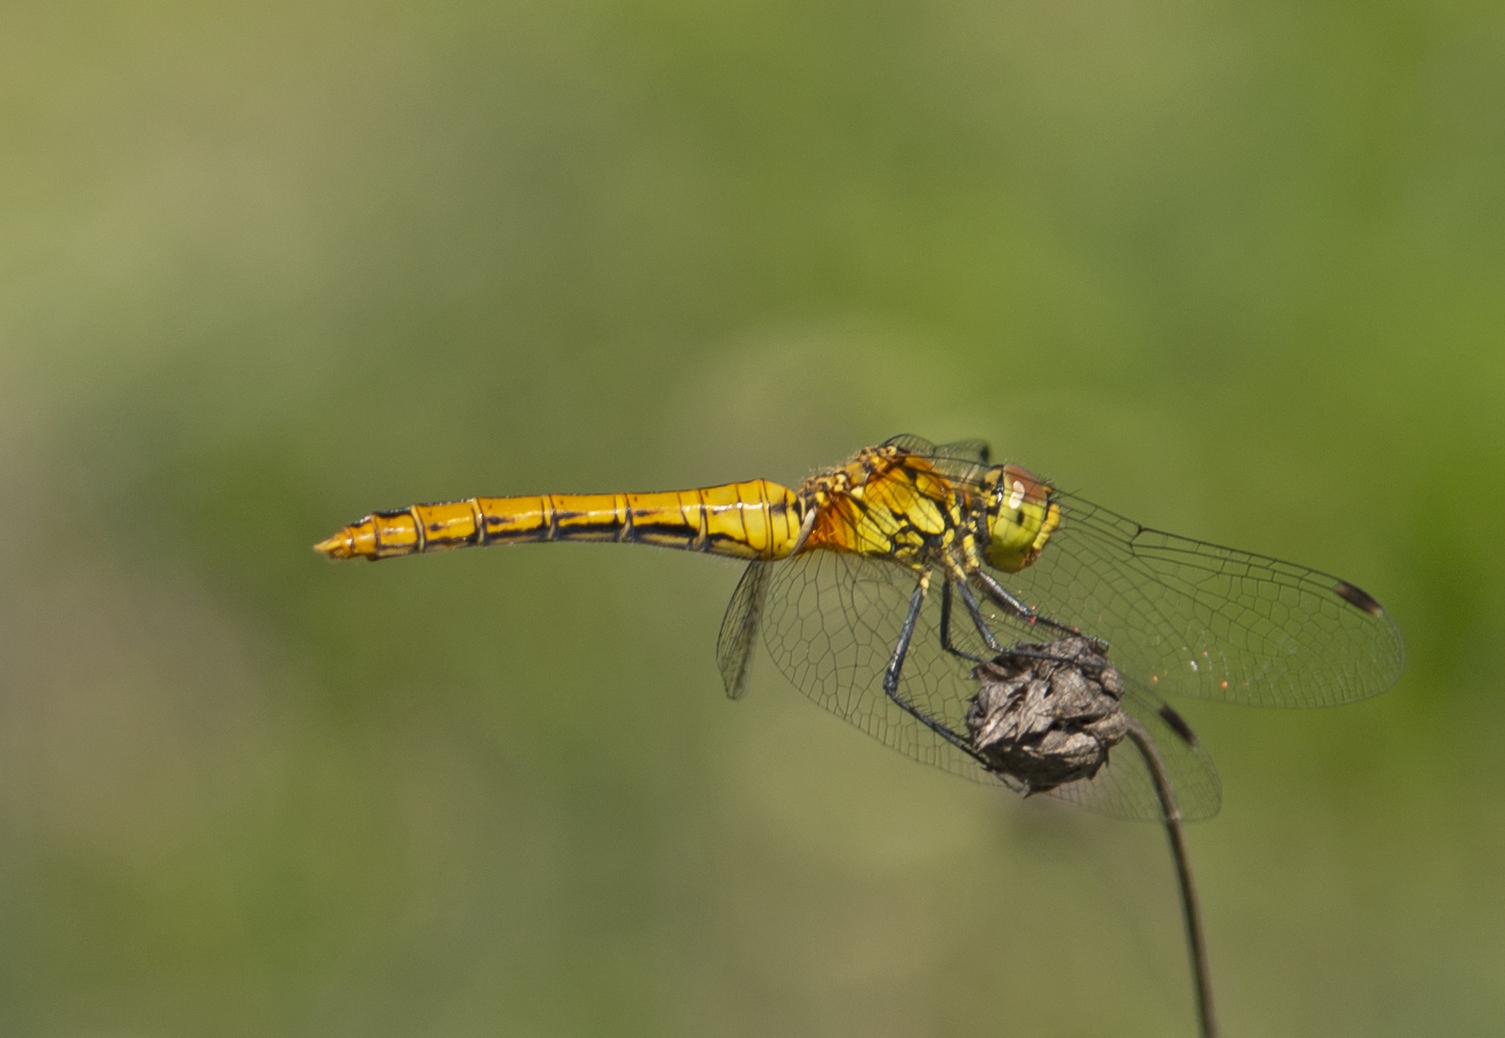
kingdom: Animalia
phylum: Arthropoda
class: Insecta
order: Odonata
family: Libellulidae
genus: Sympetrum
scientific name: Sympetrum sanguineum
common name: Ruddy darter
